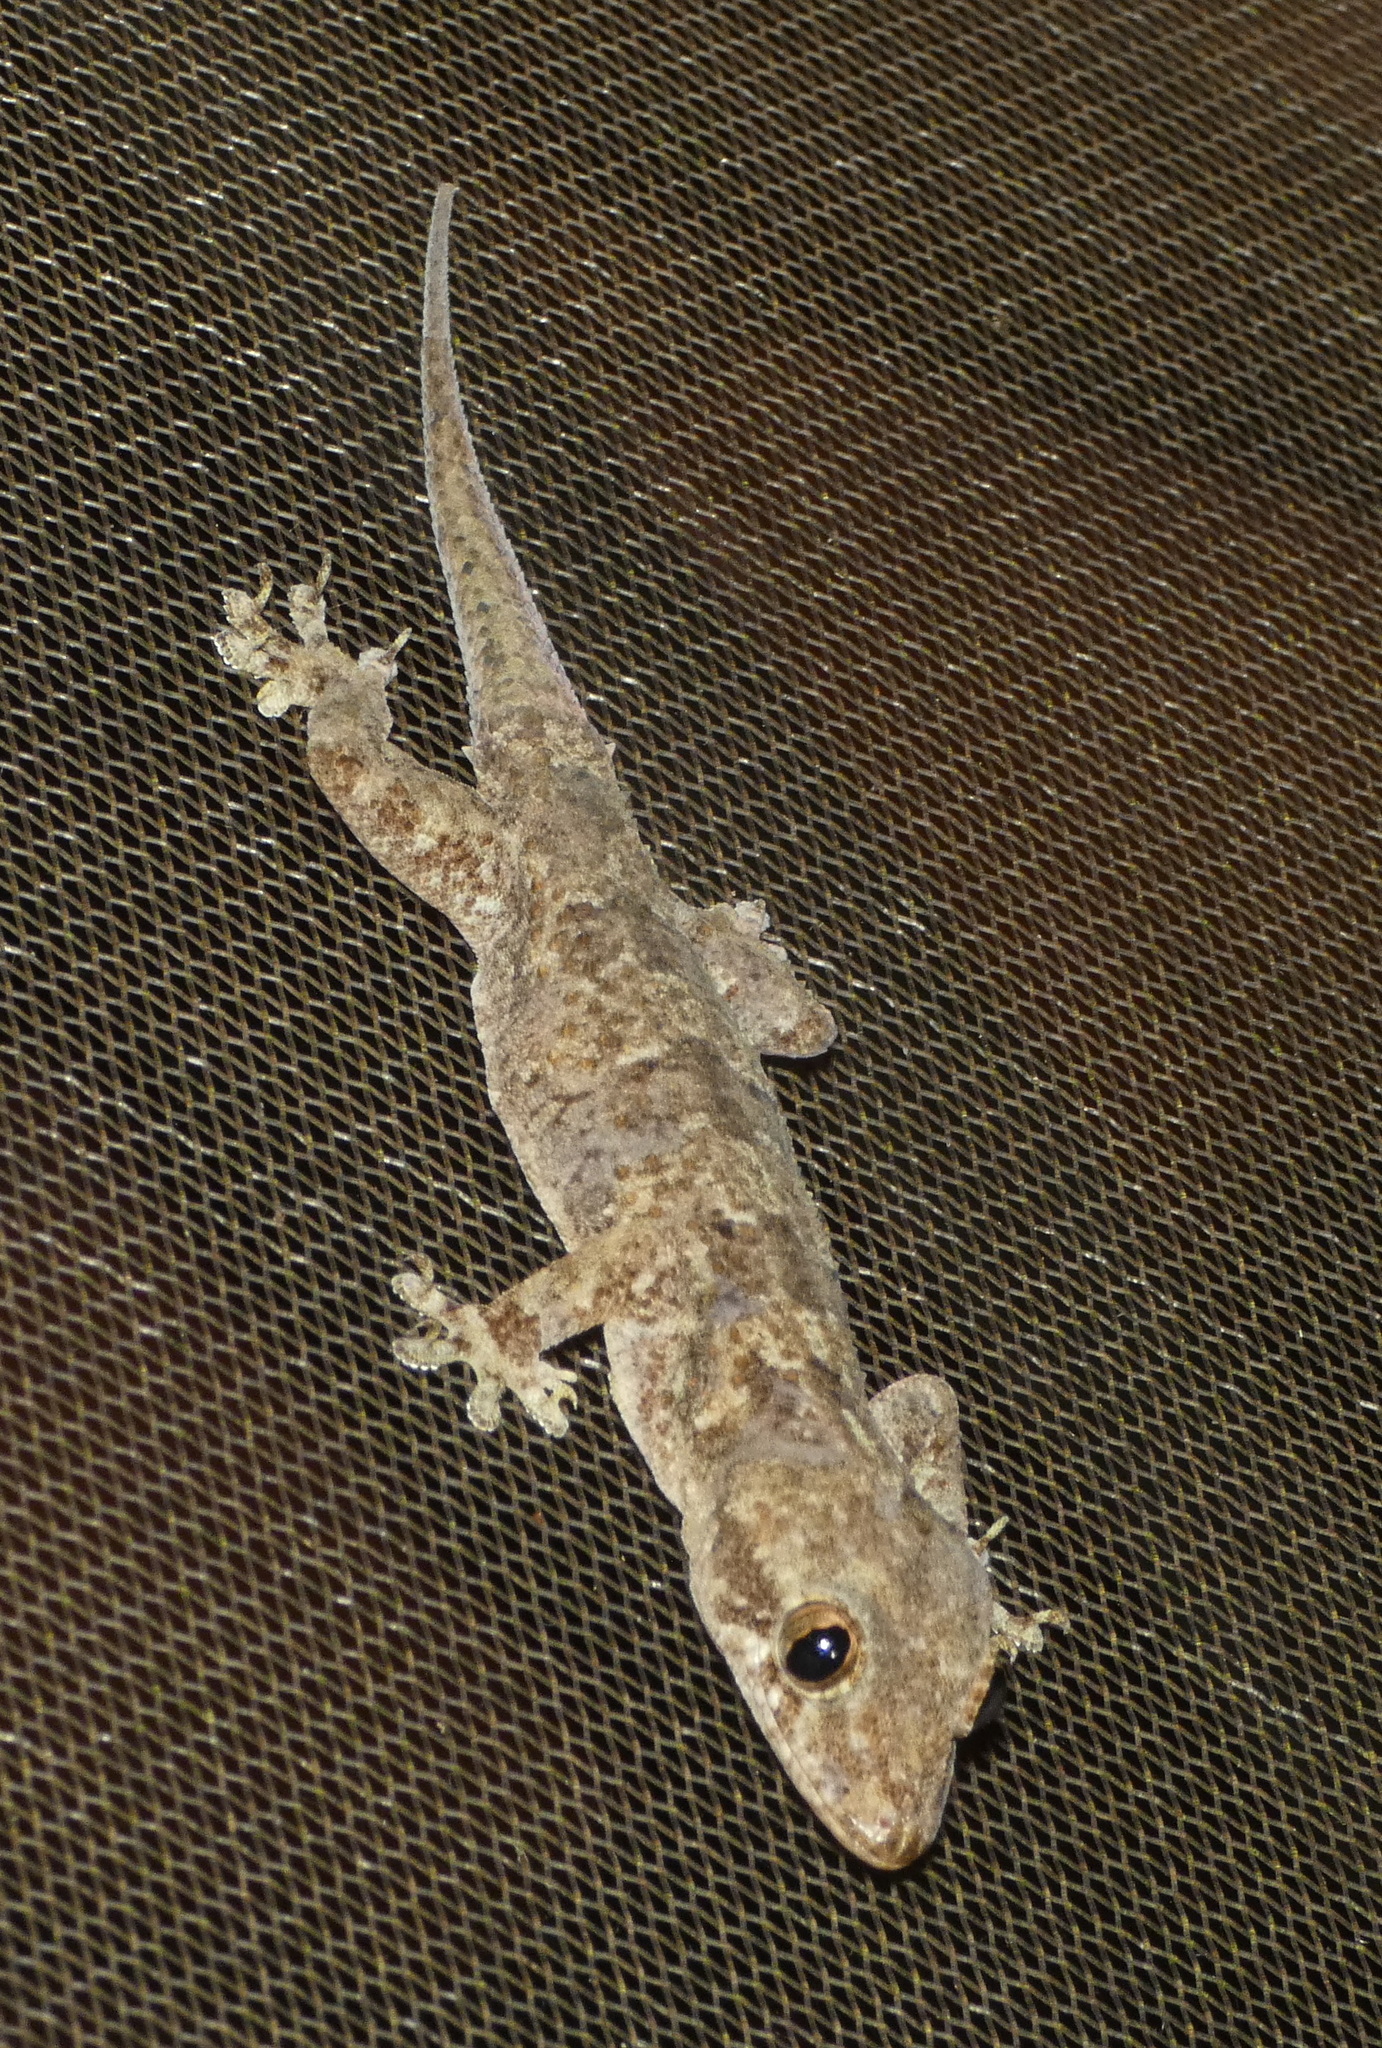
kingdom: Animalia
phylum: Chordata
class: Squamata
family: Gekkonidae
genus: Hemidactylus
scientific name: Hemidactylus mabouia
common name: House gecko
